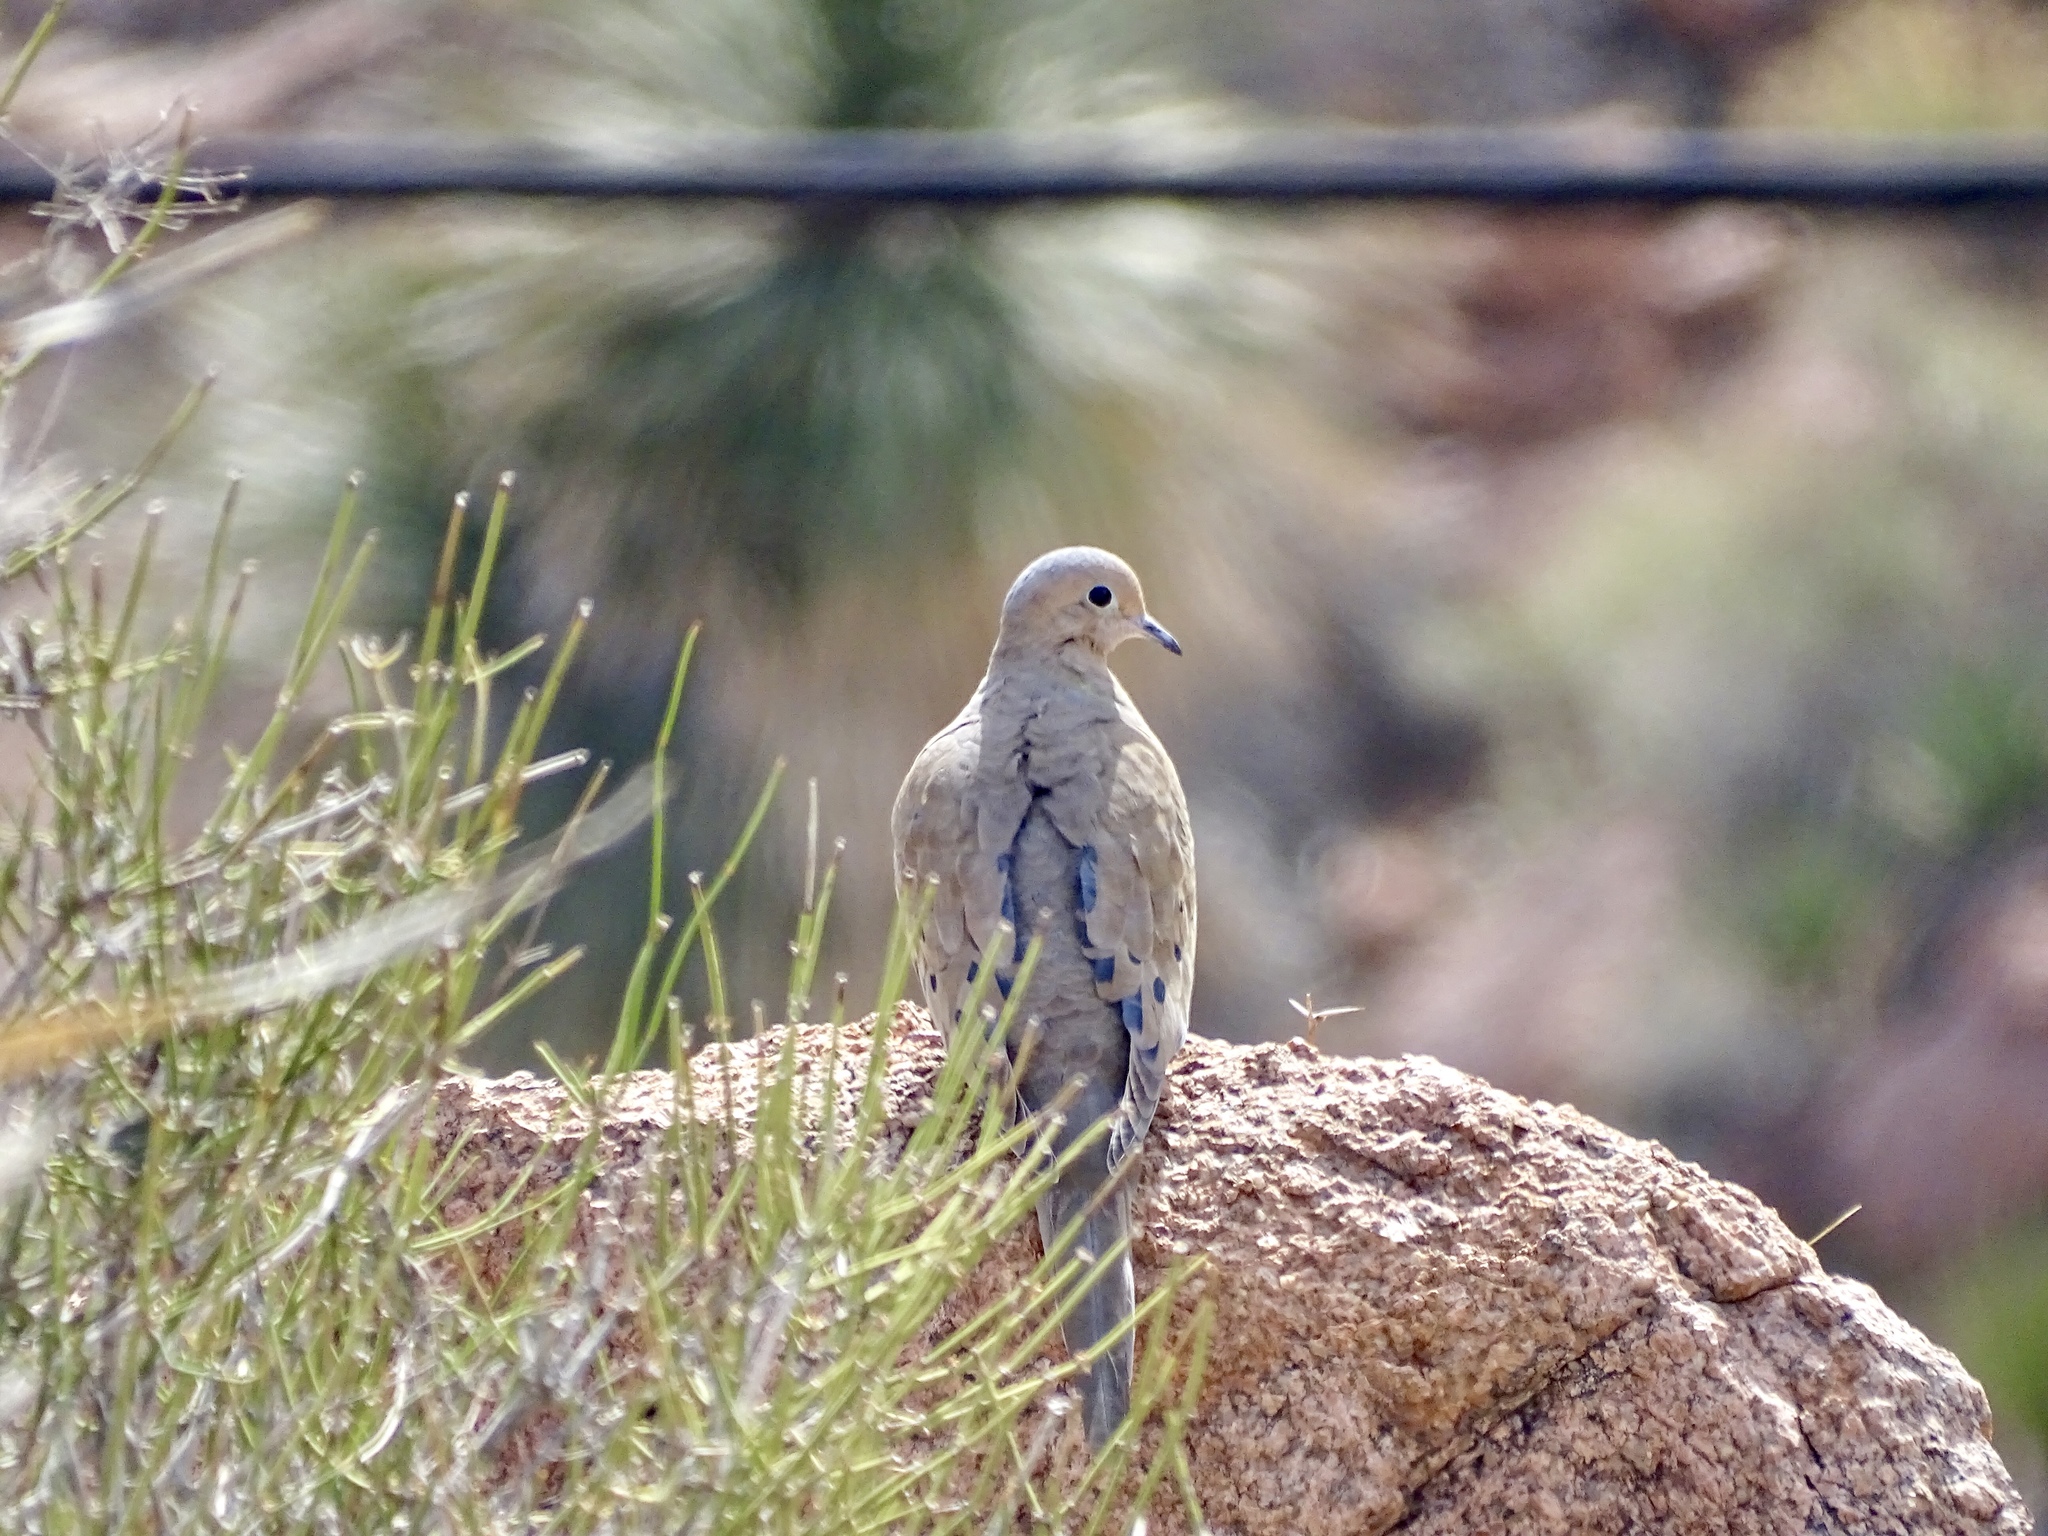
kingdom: Animalia
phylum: Chordata
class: Aves
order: Columbiformes
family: Columbidae
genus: Zenaida
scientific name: Zenaida macroura
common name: Mourning dove
